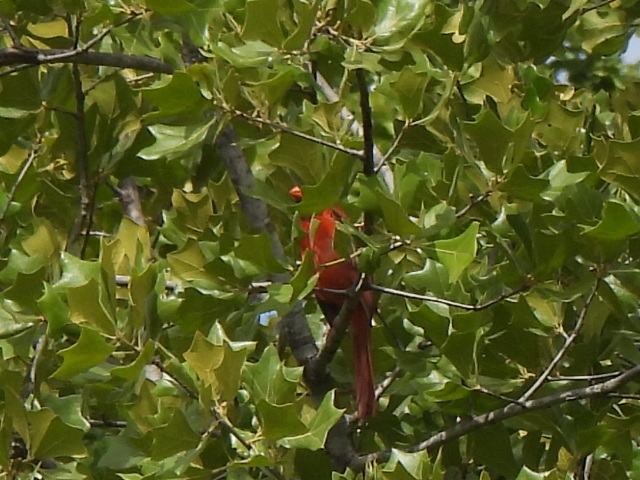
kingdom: Animalia
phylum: Chordata
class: Aves
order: Passeriformes
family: Cardinalidae
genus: Cardinalis
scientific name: Cardinalis cardinalis
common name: Northern cardinal
